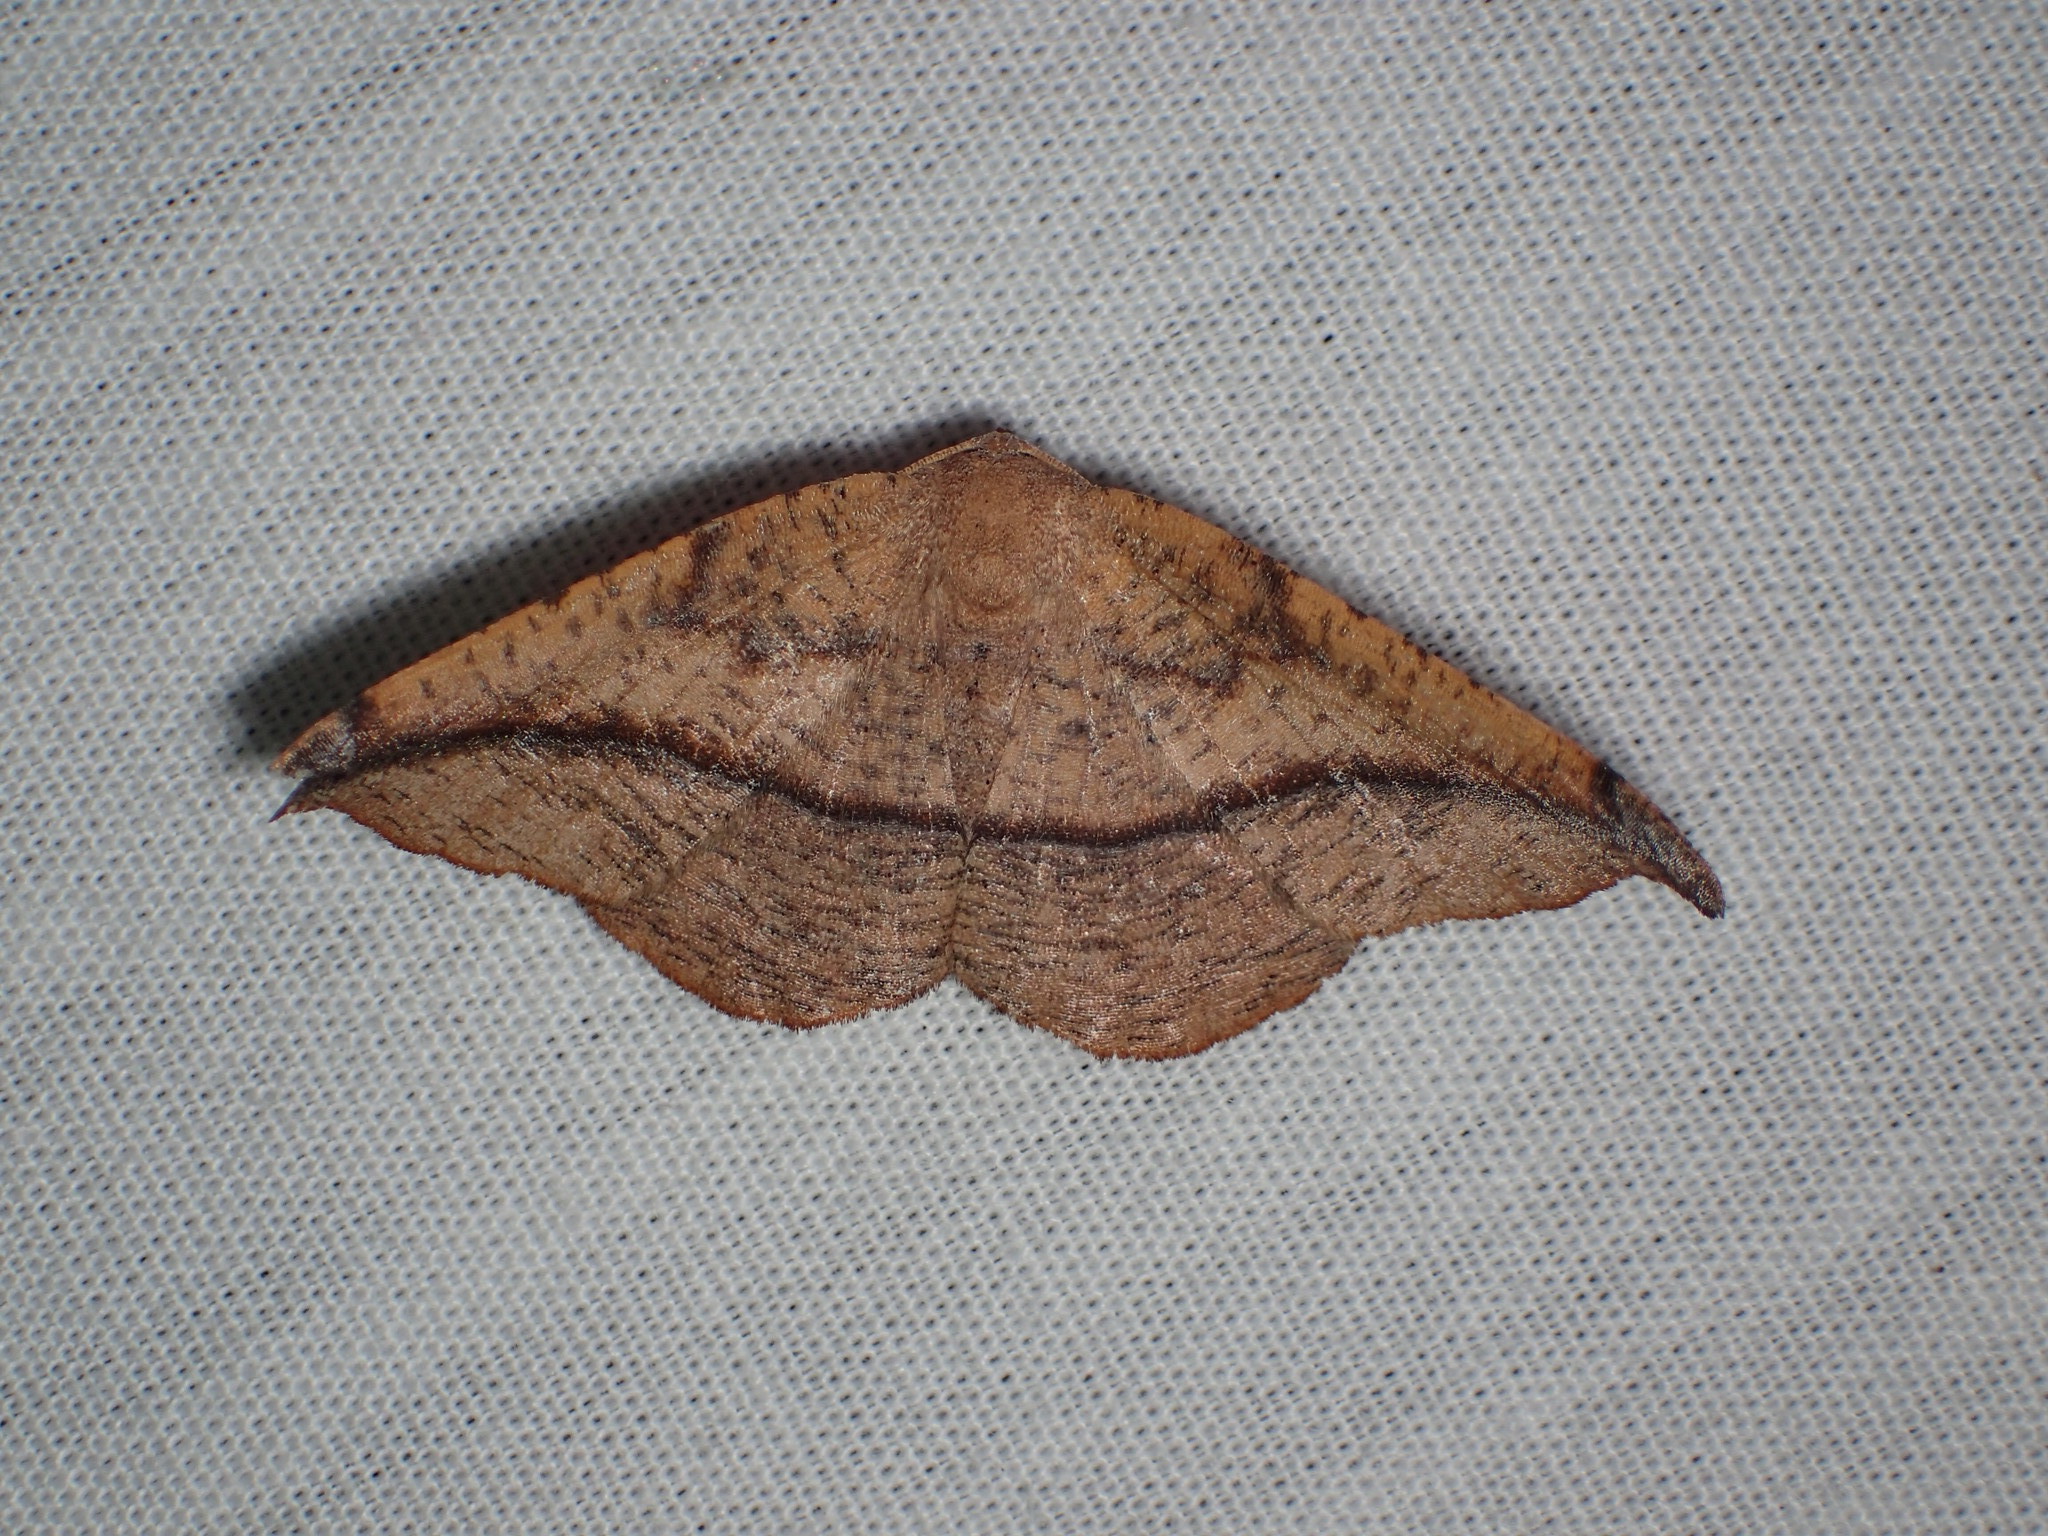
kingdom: Animalia
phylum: Arthropoda
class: Insecta
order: Lepidoptera
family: Geometridae
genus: Patalene
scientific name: Patalene olyzonaria
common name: Juniper geometer moth
